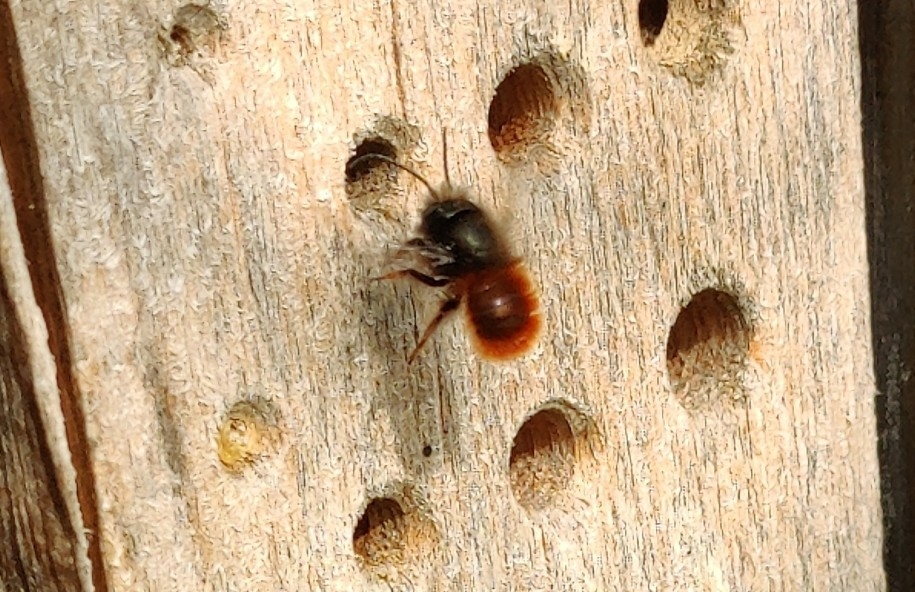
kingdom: Animalia
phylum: Arthropoda
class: Insecta
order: Hymenoptera
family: Megachilidae
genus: Osmia
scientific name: Osmia cornuta
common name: Mason bee
